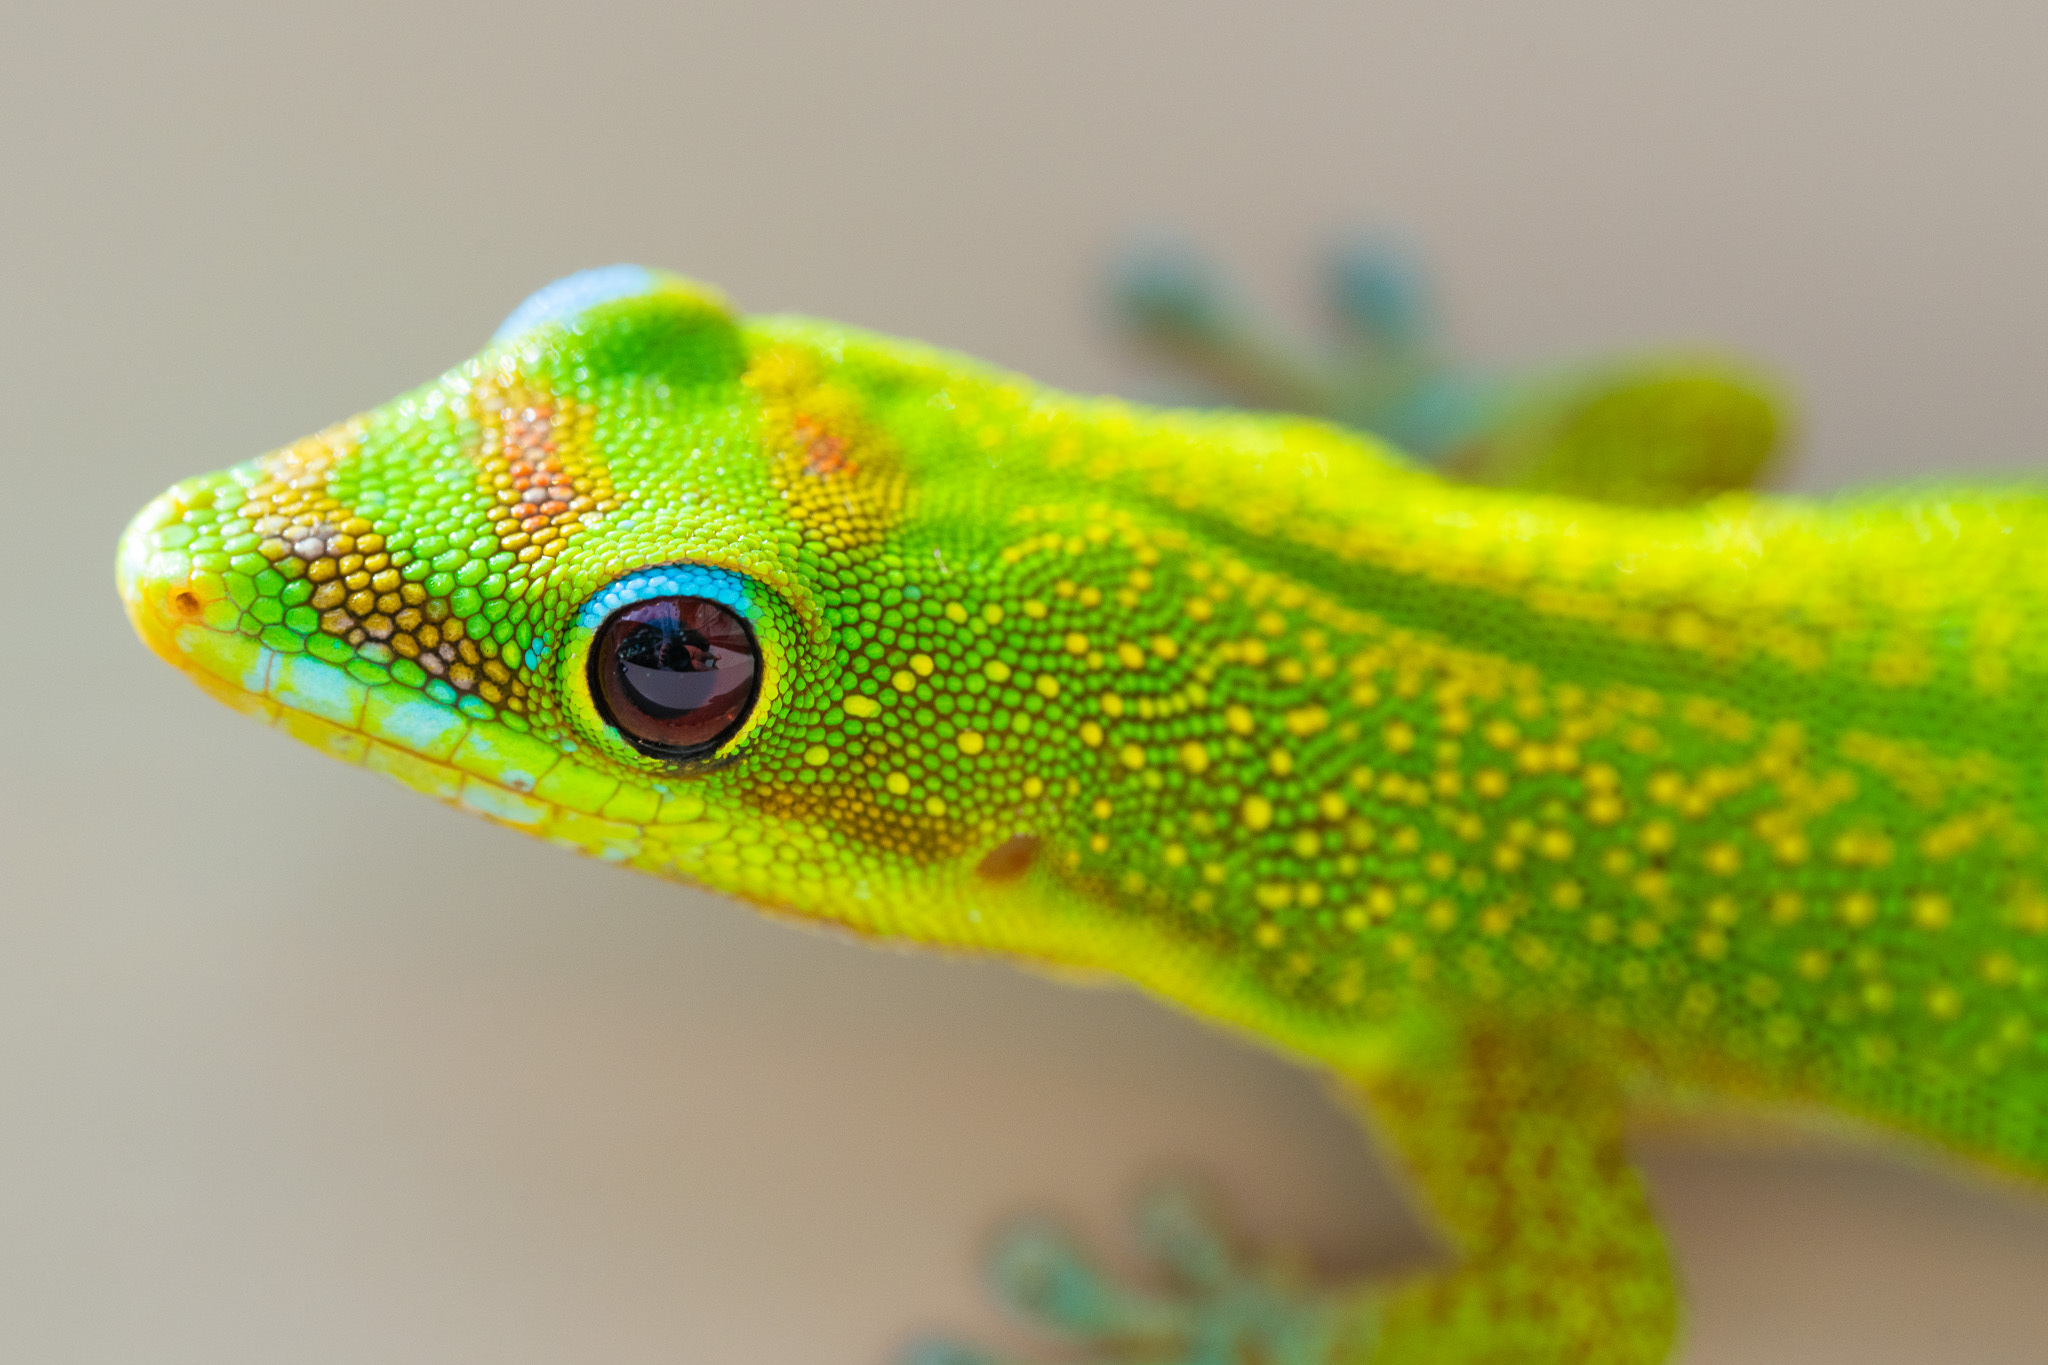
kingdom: Animalia
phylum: Chordata
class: Squamata
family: Gekkonidae
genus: Phelsuma
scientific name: Phelsuma laticauda
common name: Gold dust day gecko
